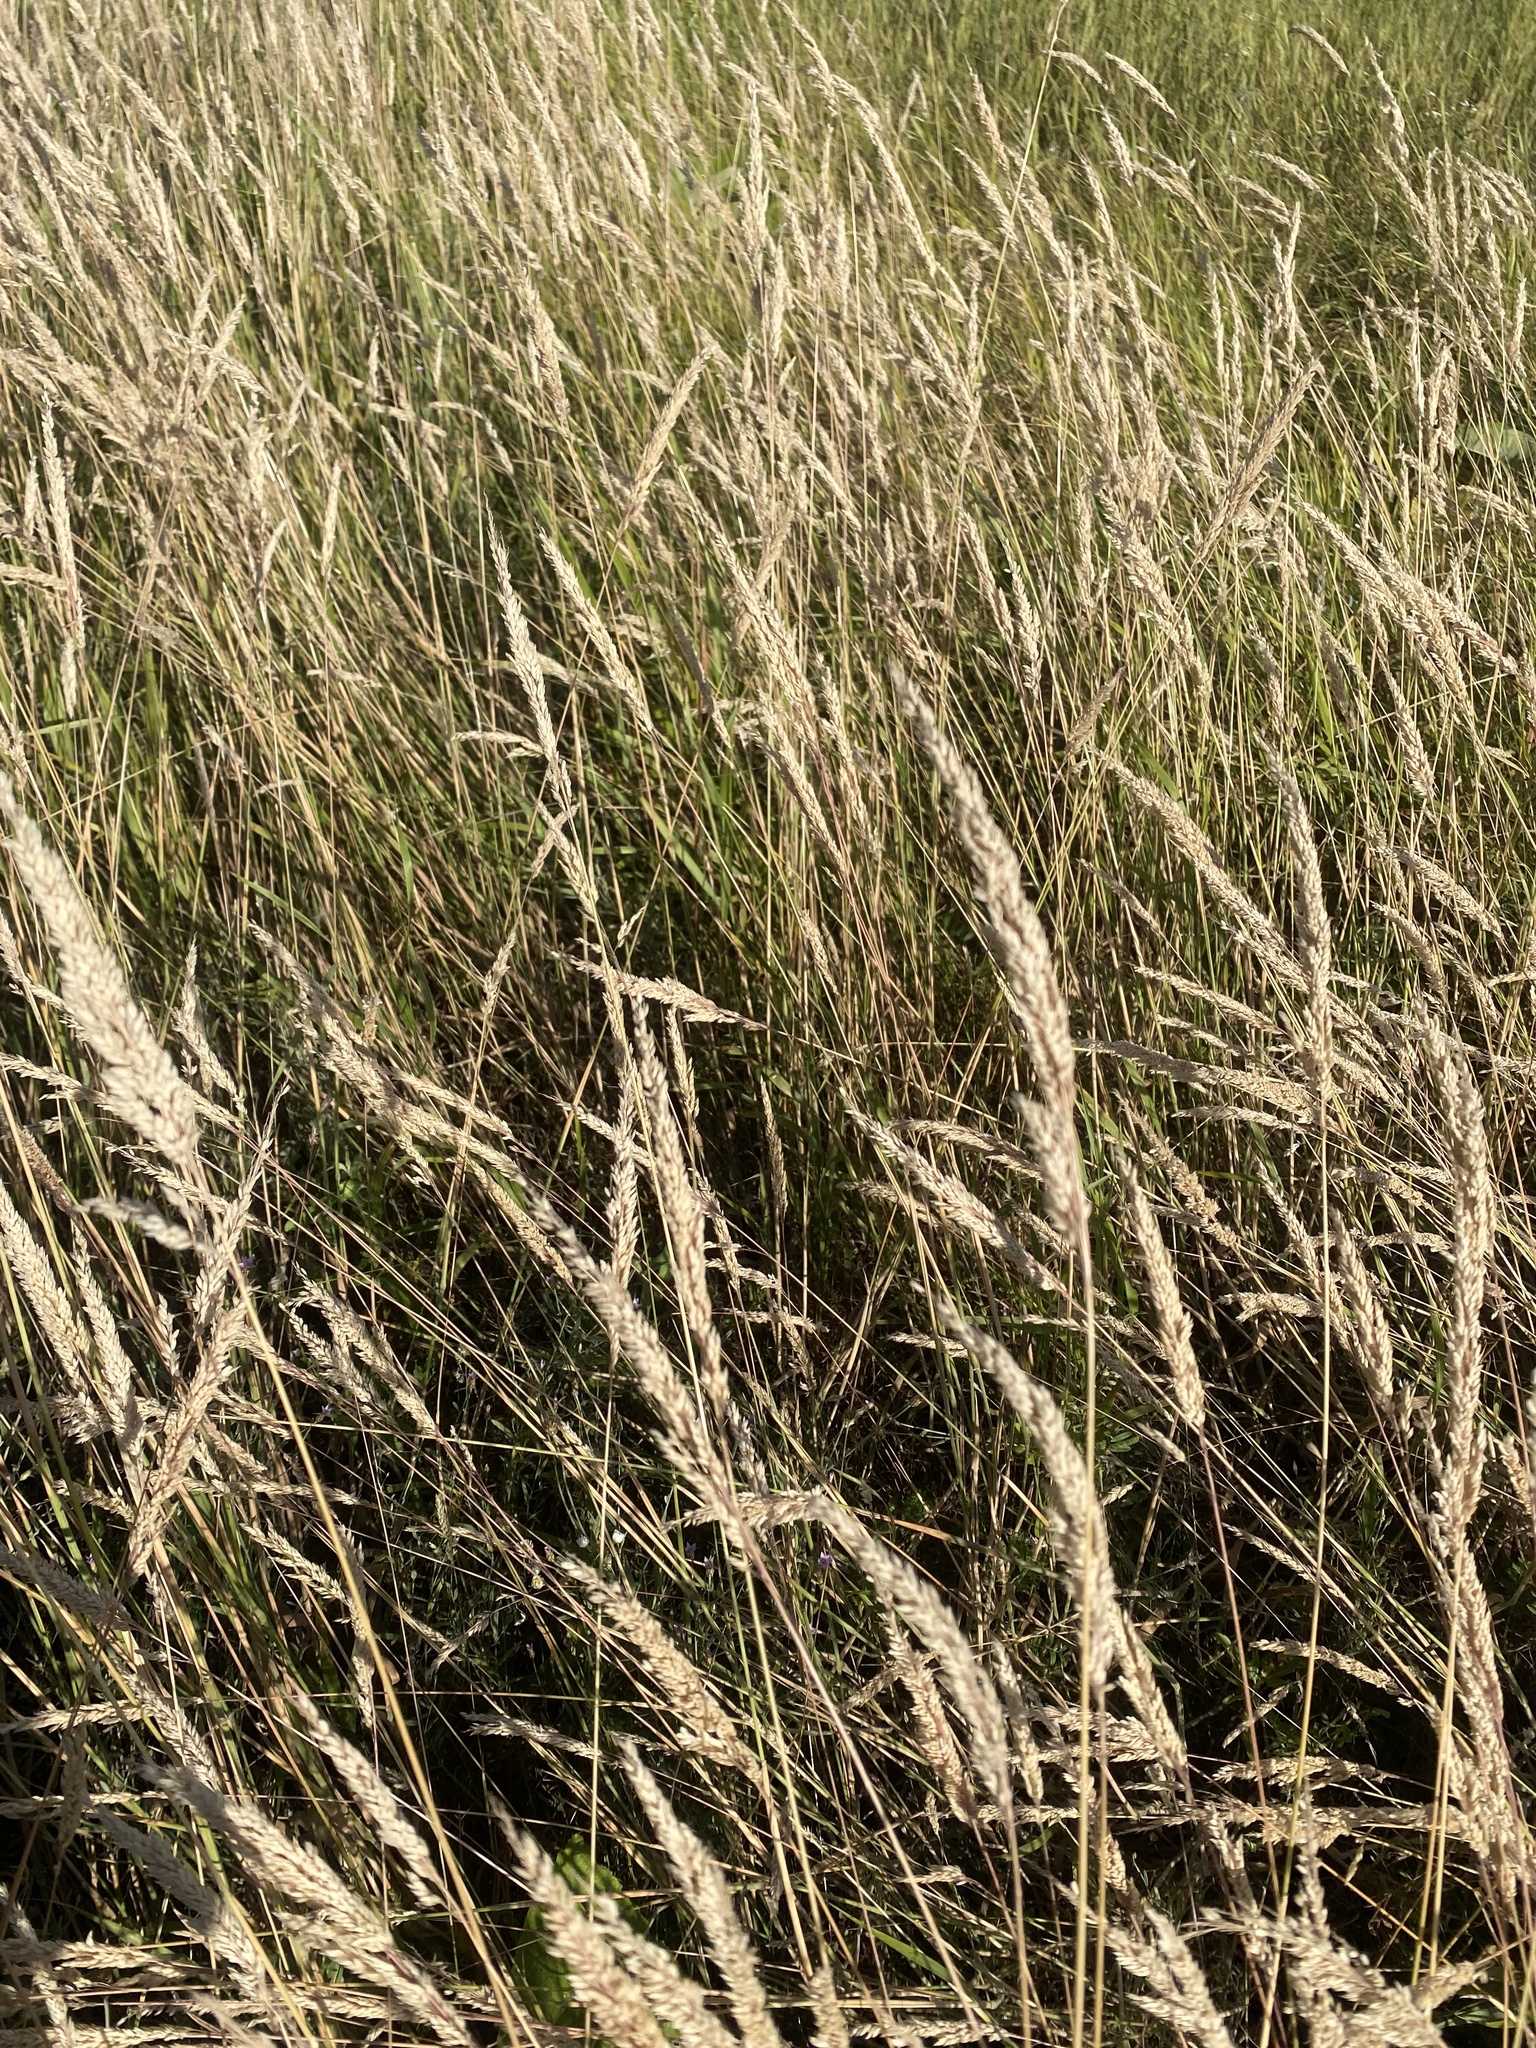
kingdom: Plantae
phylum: Tracheophyta
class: Liliopsida
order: Poales
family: Poaceae
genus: Phalaris
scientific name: Phalaris arundinacea
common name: Reed canary-grass
